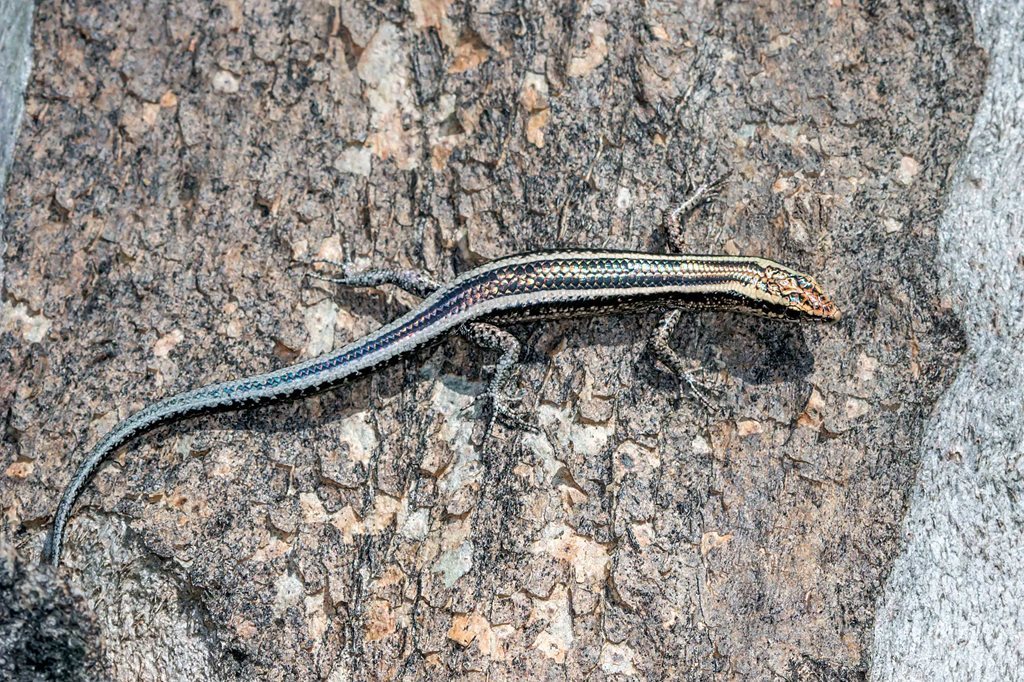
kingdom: Animalia
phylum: Chordata
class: Squamata
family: Scincidae
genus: Cryptoblepharus
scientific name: Cryptoblepharus pulcher
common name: Elegant snake-eyed skink
